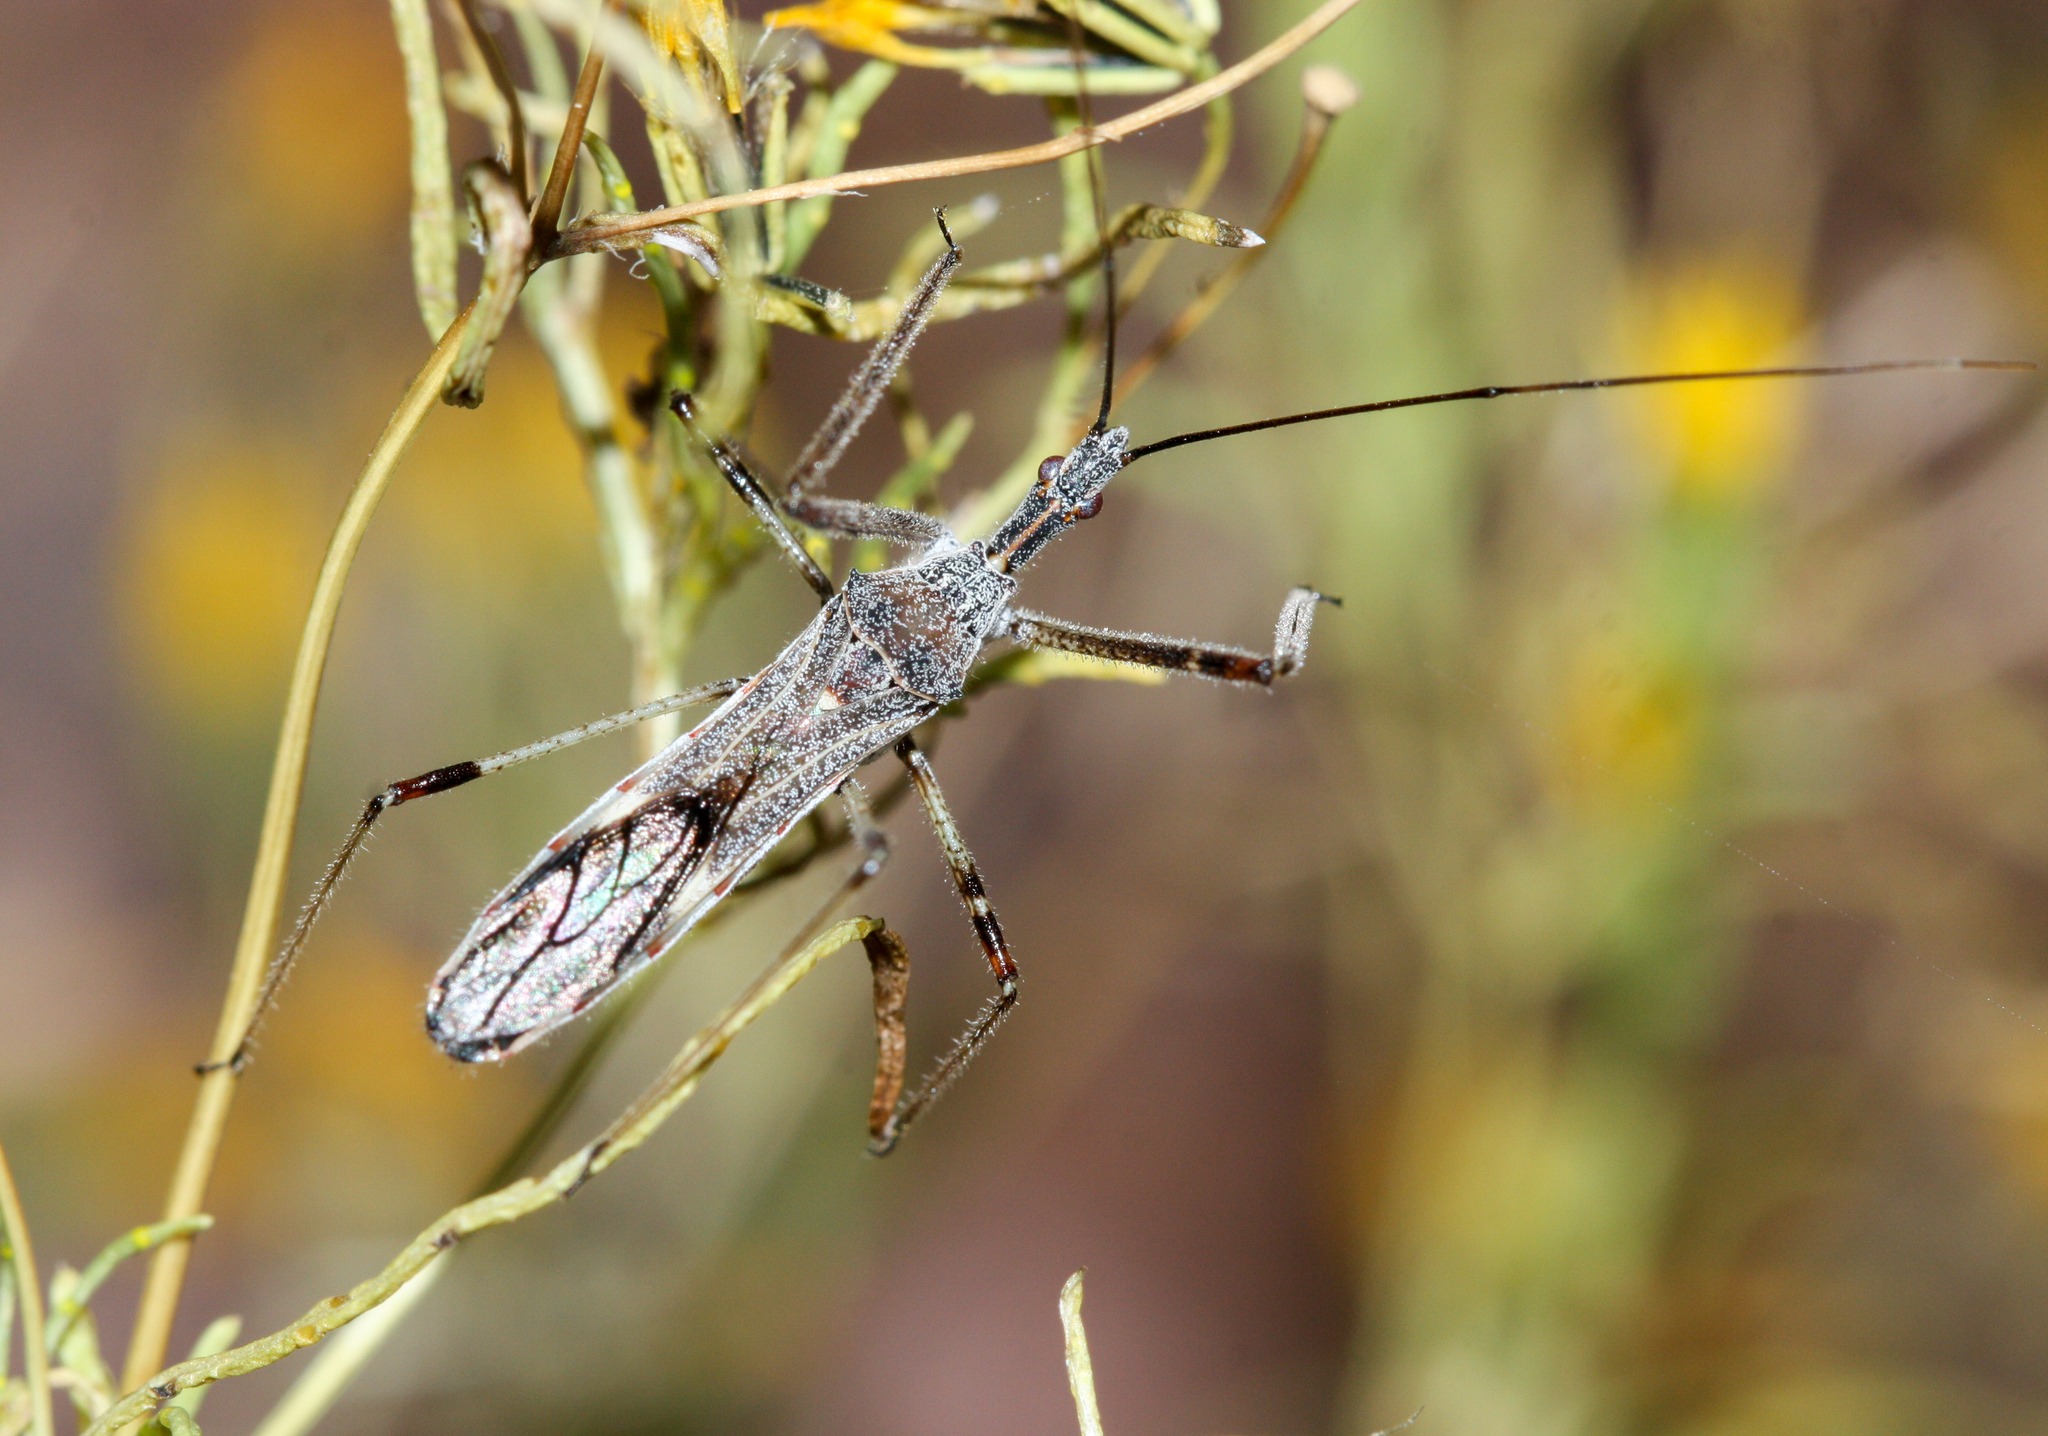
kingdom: Animalia
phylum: Arthropoda
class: Insecta
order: Hemiptera
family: Reduviidae
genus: Zelus
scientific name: Zelus tetracanthus
